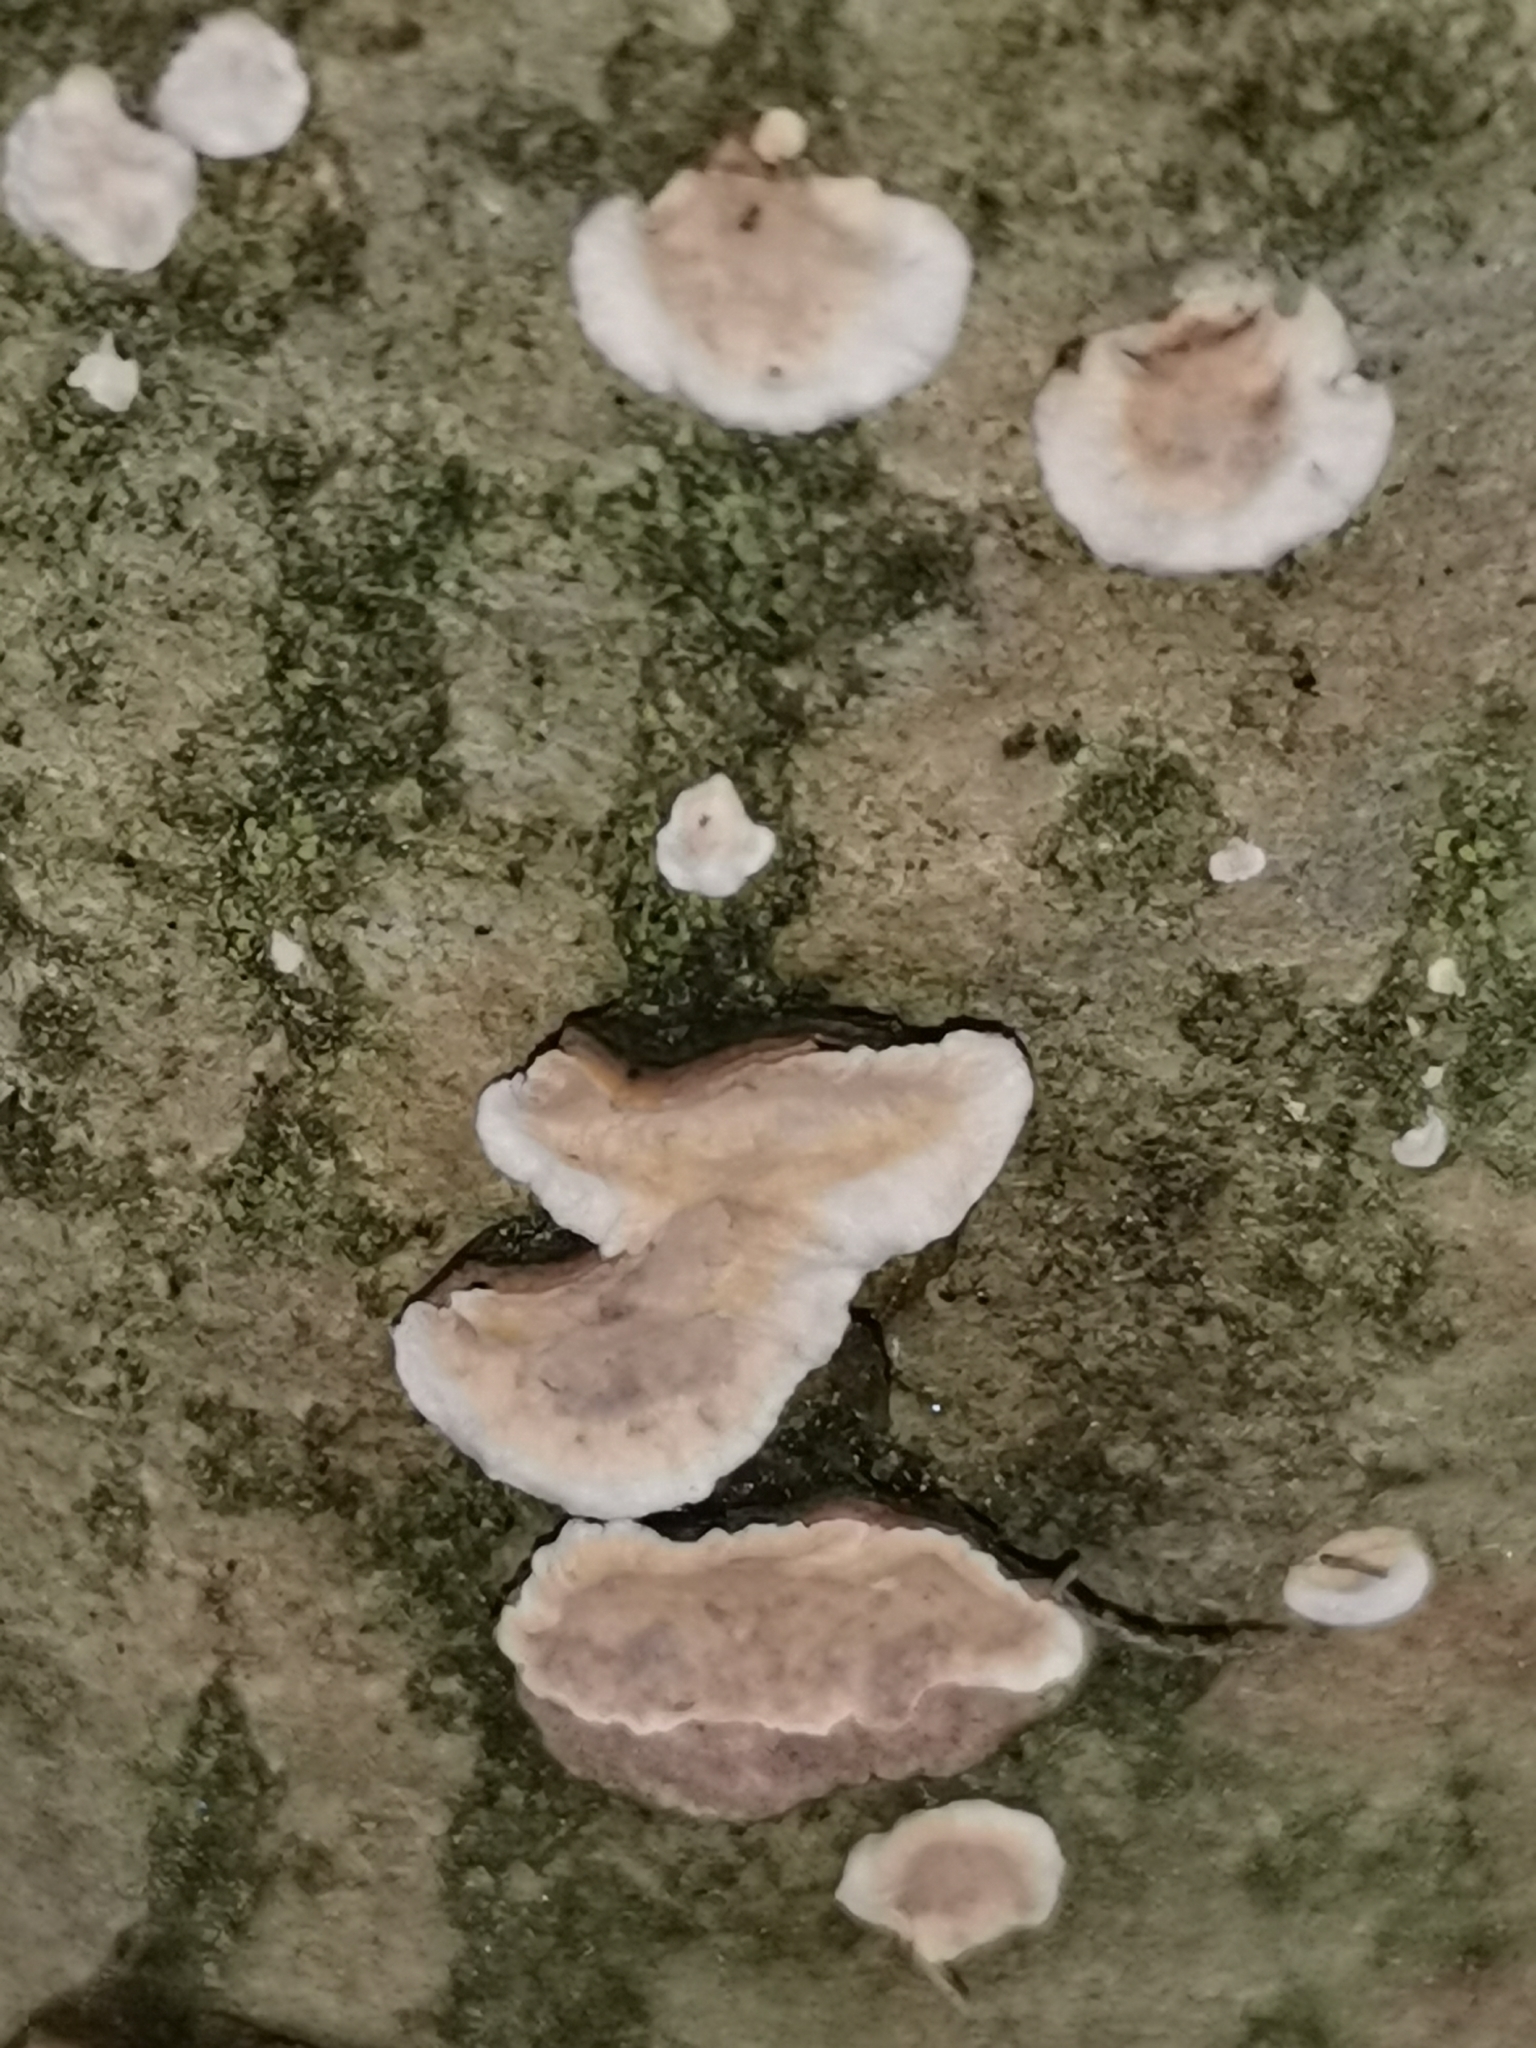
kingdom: Fungi
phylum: Basidiomycota
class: Agaricomycetes
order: Russulales
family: Stereaceae
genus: Stereum
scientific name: Stereum rugosum
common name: Bleeding broadleaf crust
